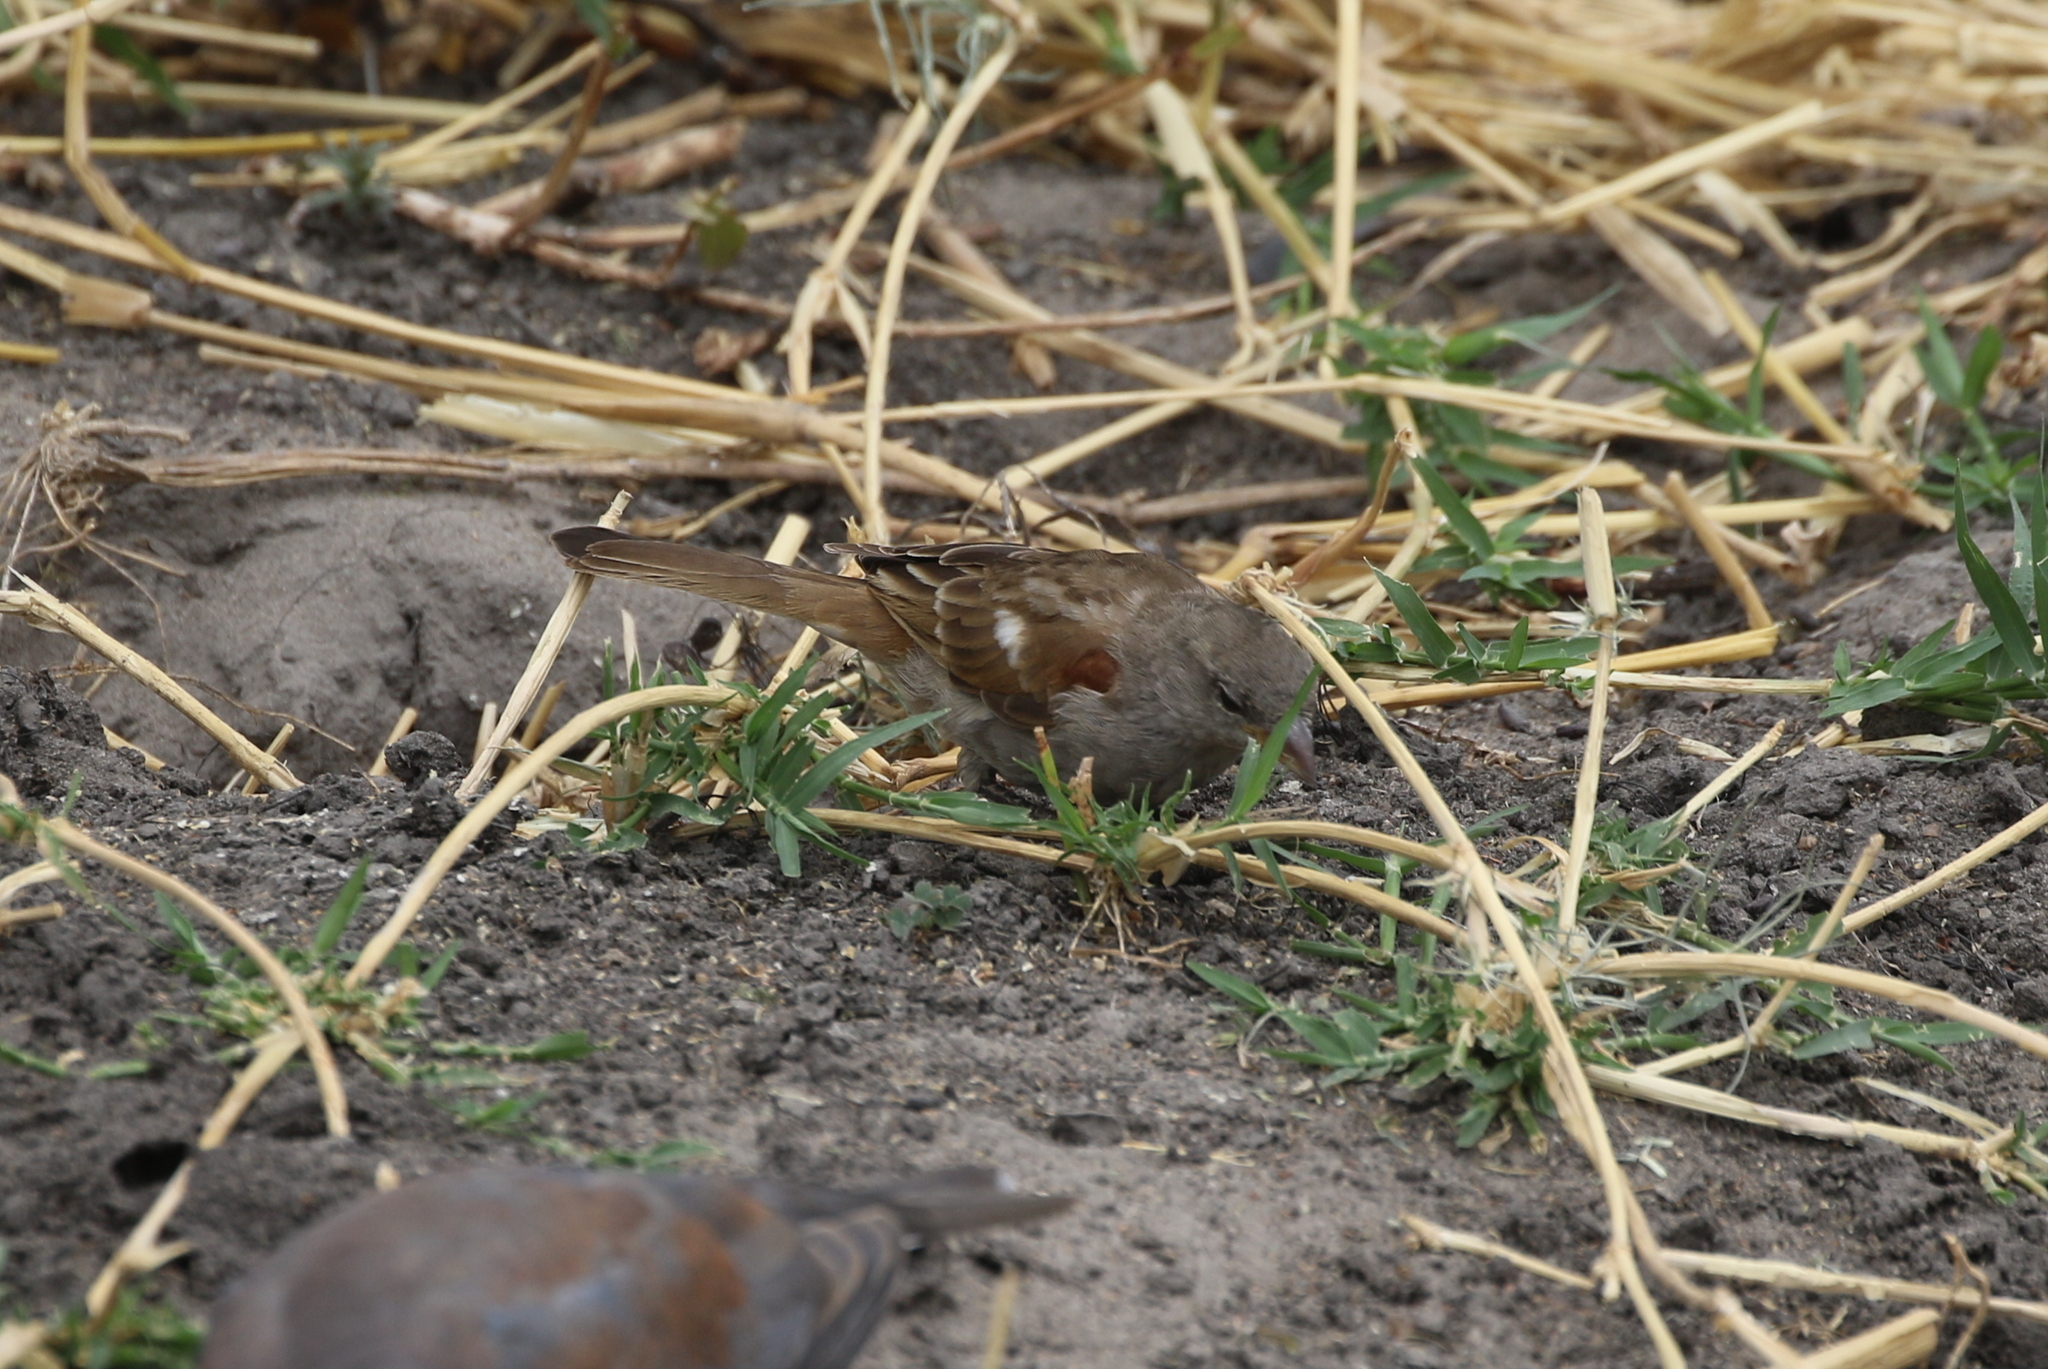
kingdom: Animalia
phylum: Chordata
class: Aves
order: Passeriformes
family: Passeridae
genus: Passer
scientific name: Passer suahelicus
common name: Swahili sparrow
